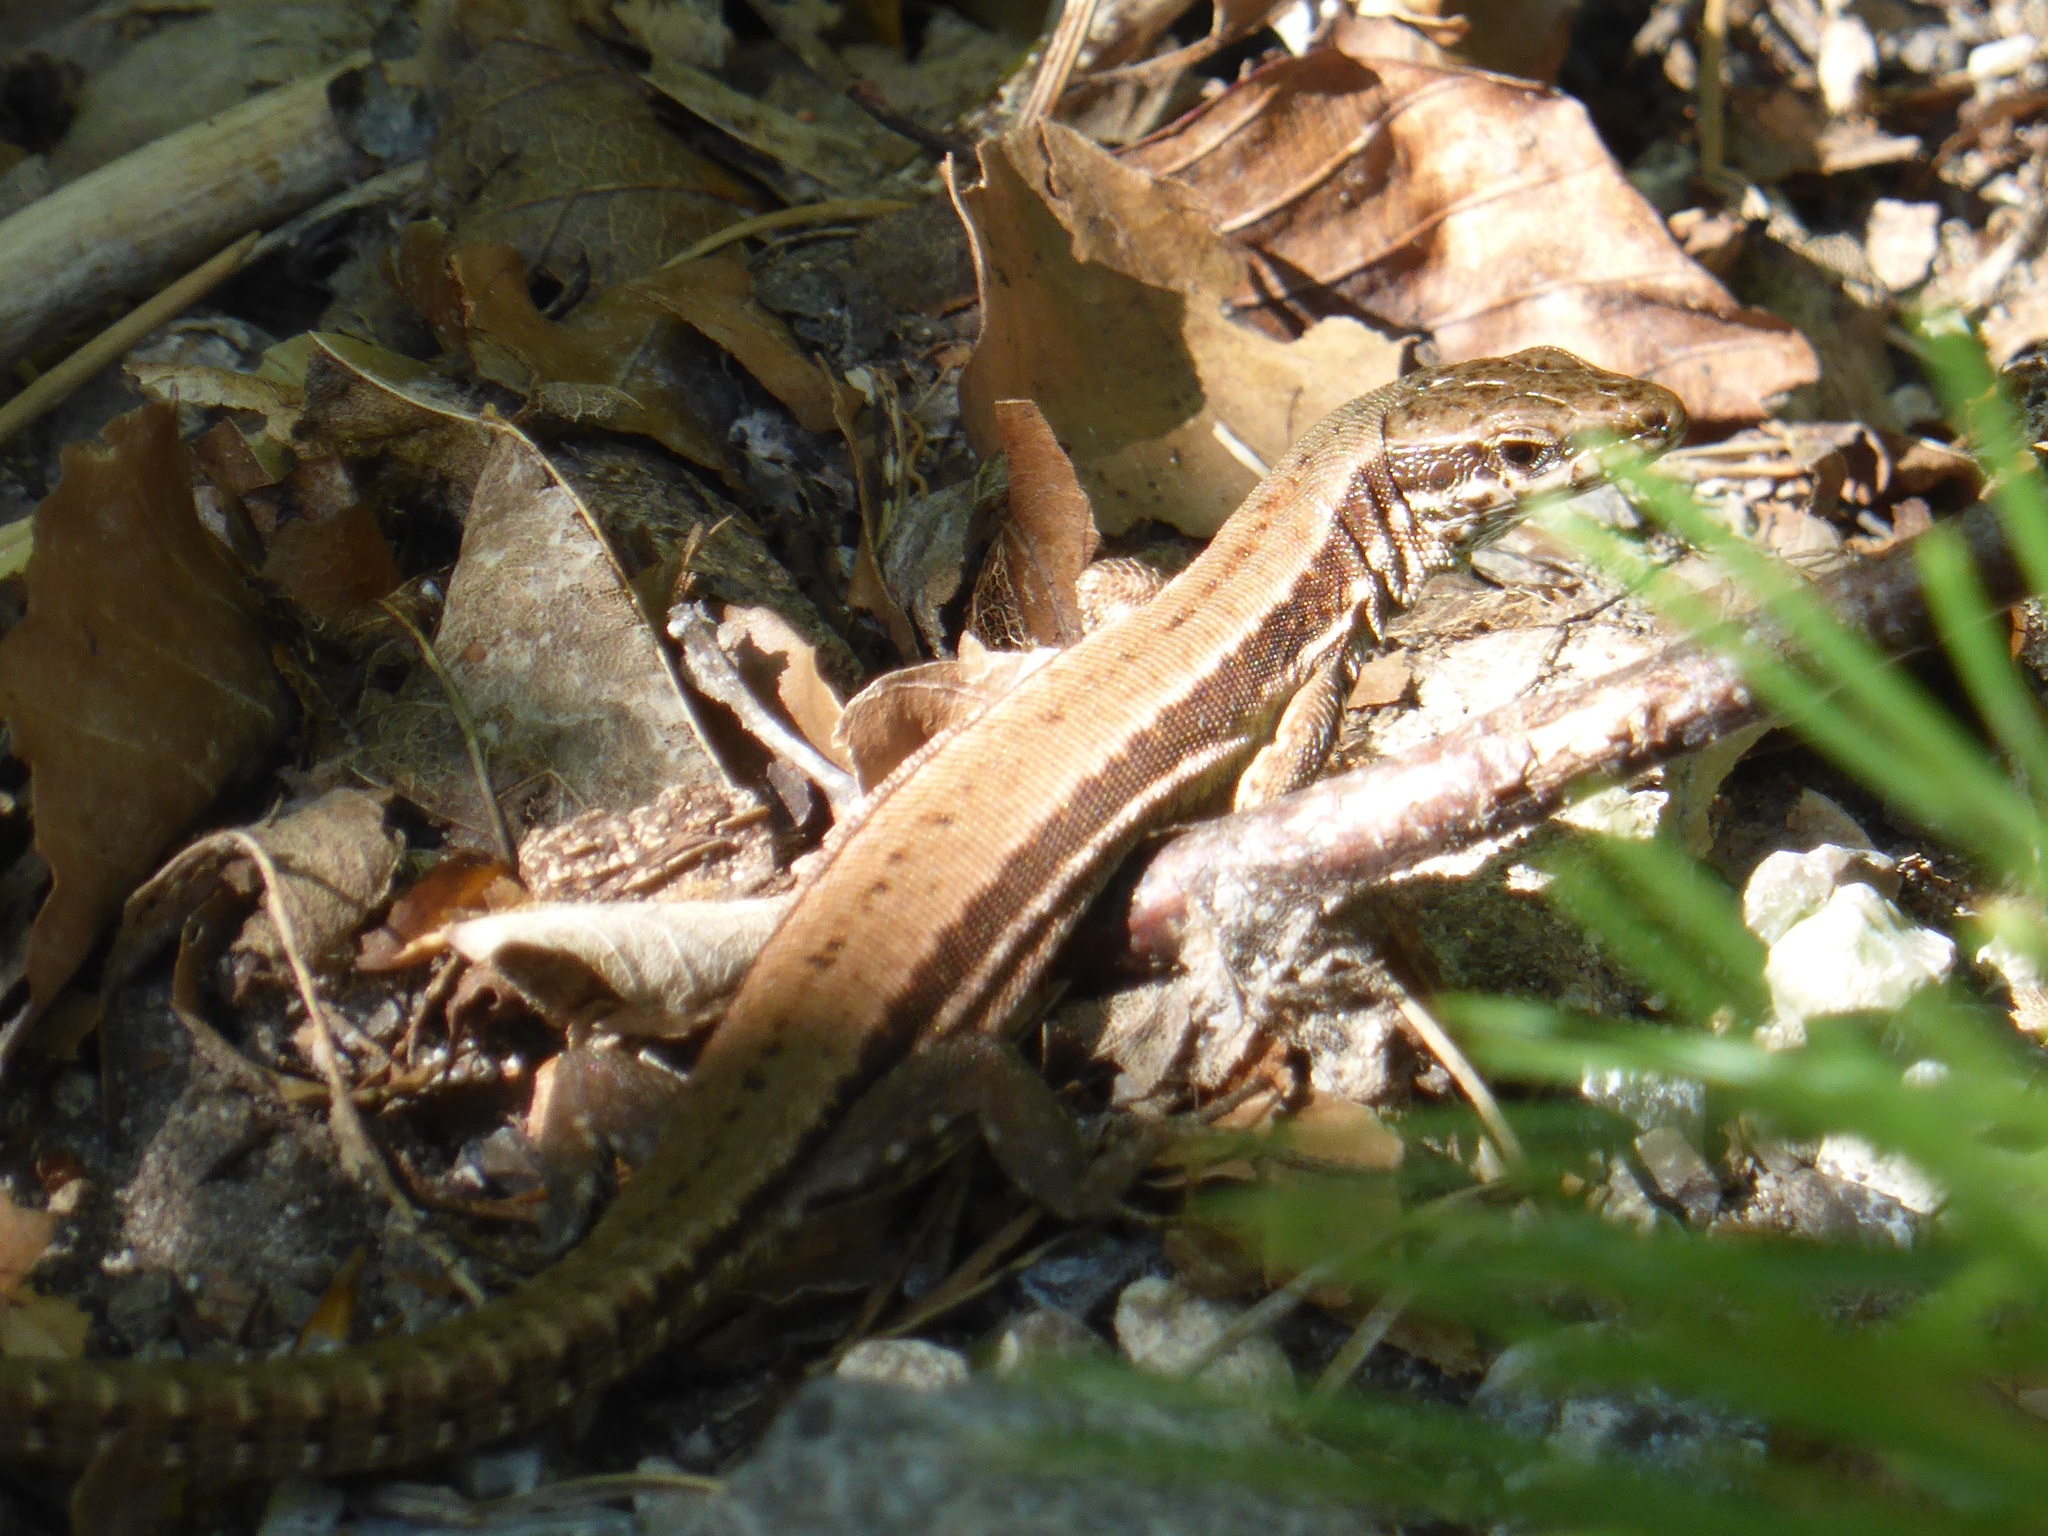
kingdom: Animalia
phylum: Chordata
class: Squamata
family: Lacertidae
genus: Podarcis
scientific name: Podarcis muralis
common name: Common wall lizard
